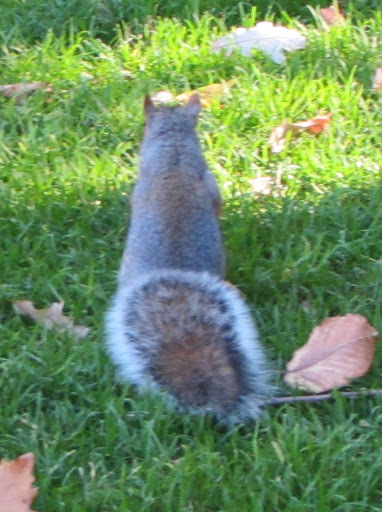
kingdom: Animalia
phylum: Chordata
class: Mammalia
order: Rodentia
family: Sciuridae
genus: Sciurus
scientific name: Sciurus carolinensis
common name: Eastern gray squirrel
